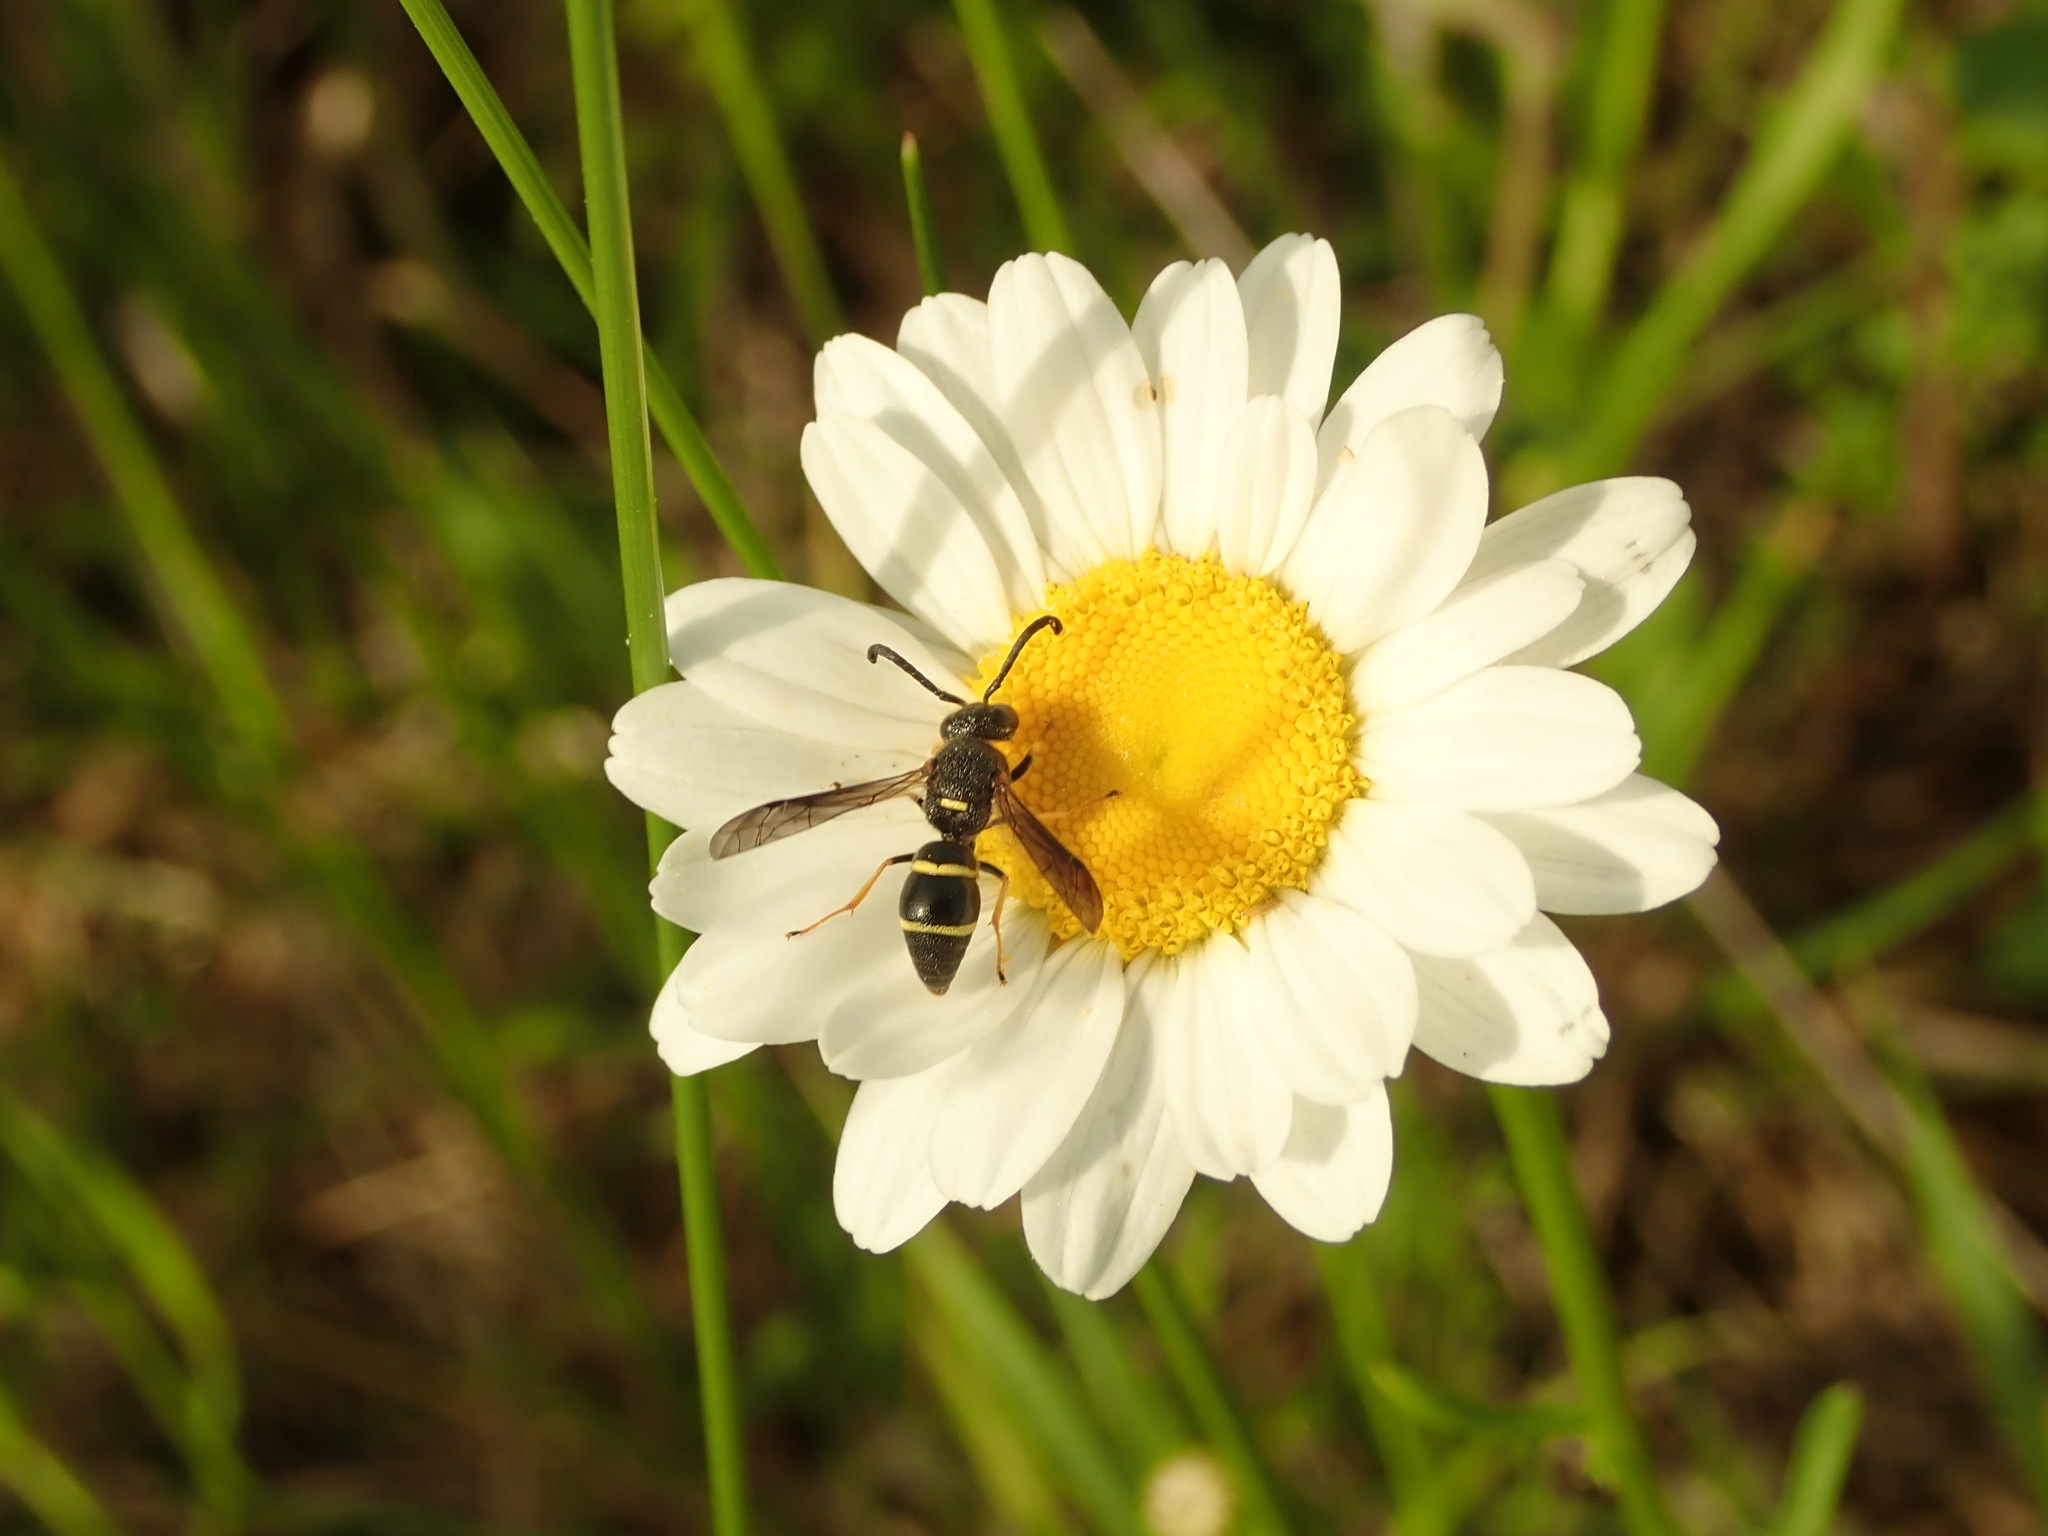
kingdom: Animalia
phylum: Arthropoda
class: Insecta
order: Hymenoptera
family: Eumenidae
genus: Euodynerus
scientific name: Euodynerus
